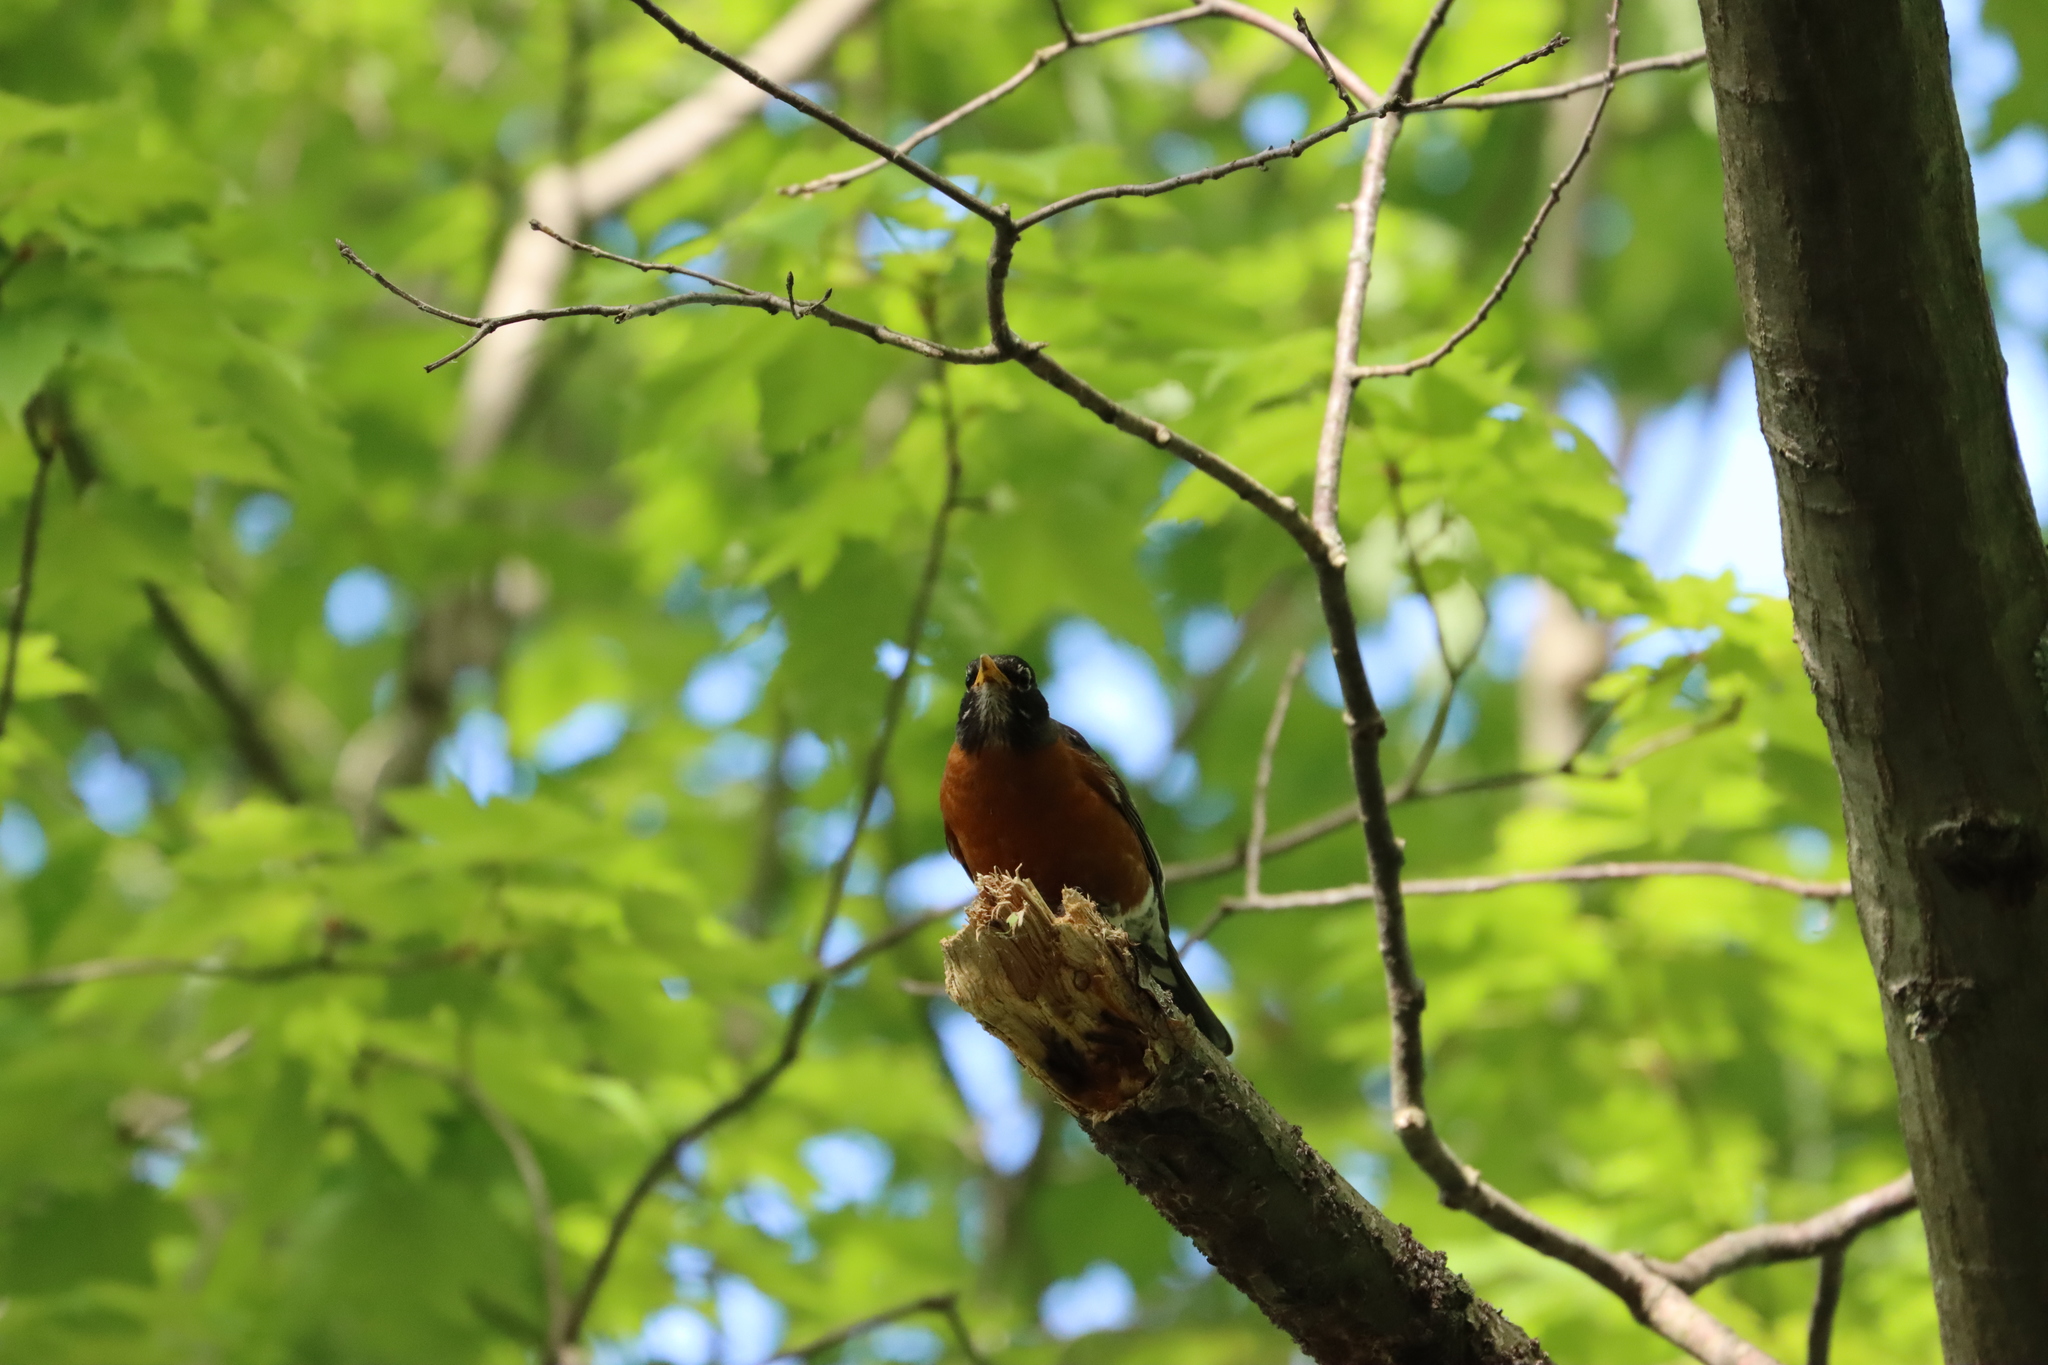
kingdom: Animalia
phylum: Chordata
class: Aves
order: Passeriformes
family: Turdidae
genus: Turdus
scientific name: Turdus migratorius
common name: American robin
